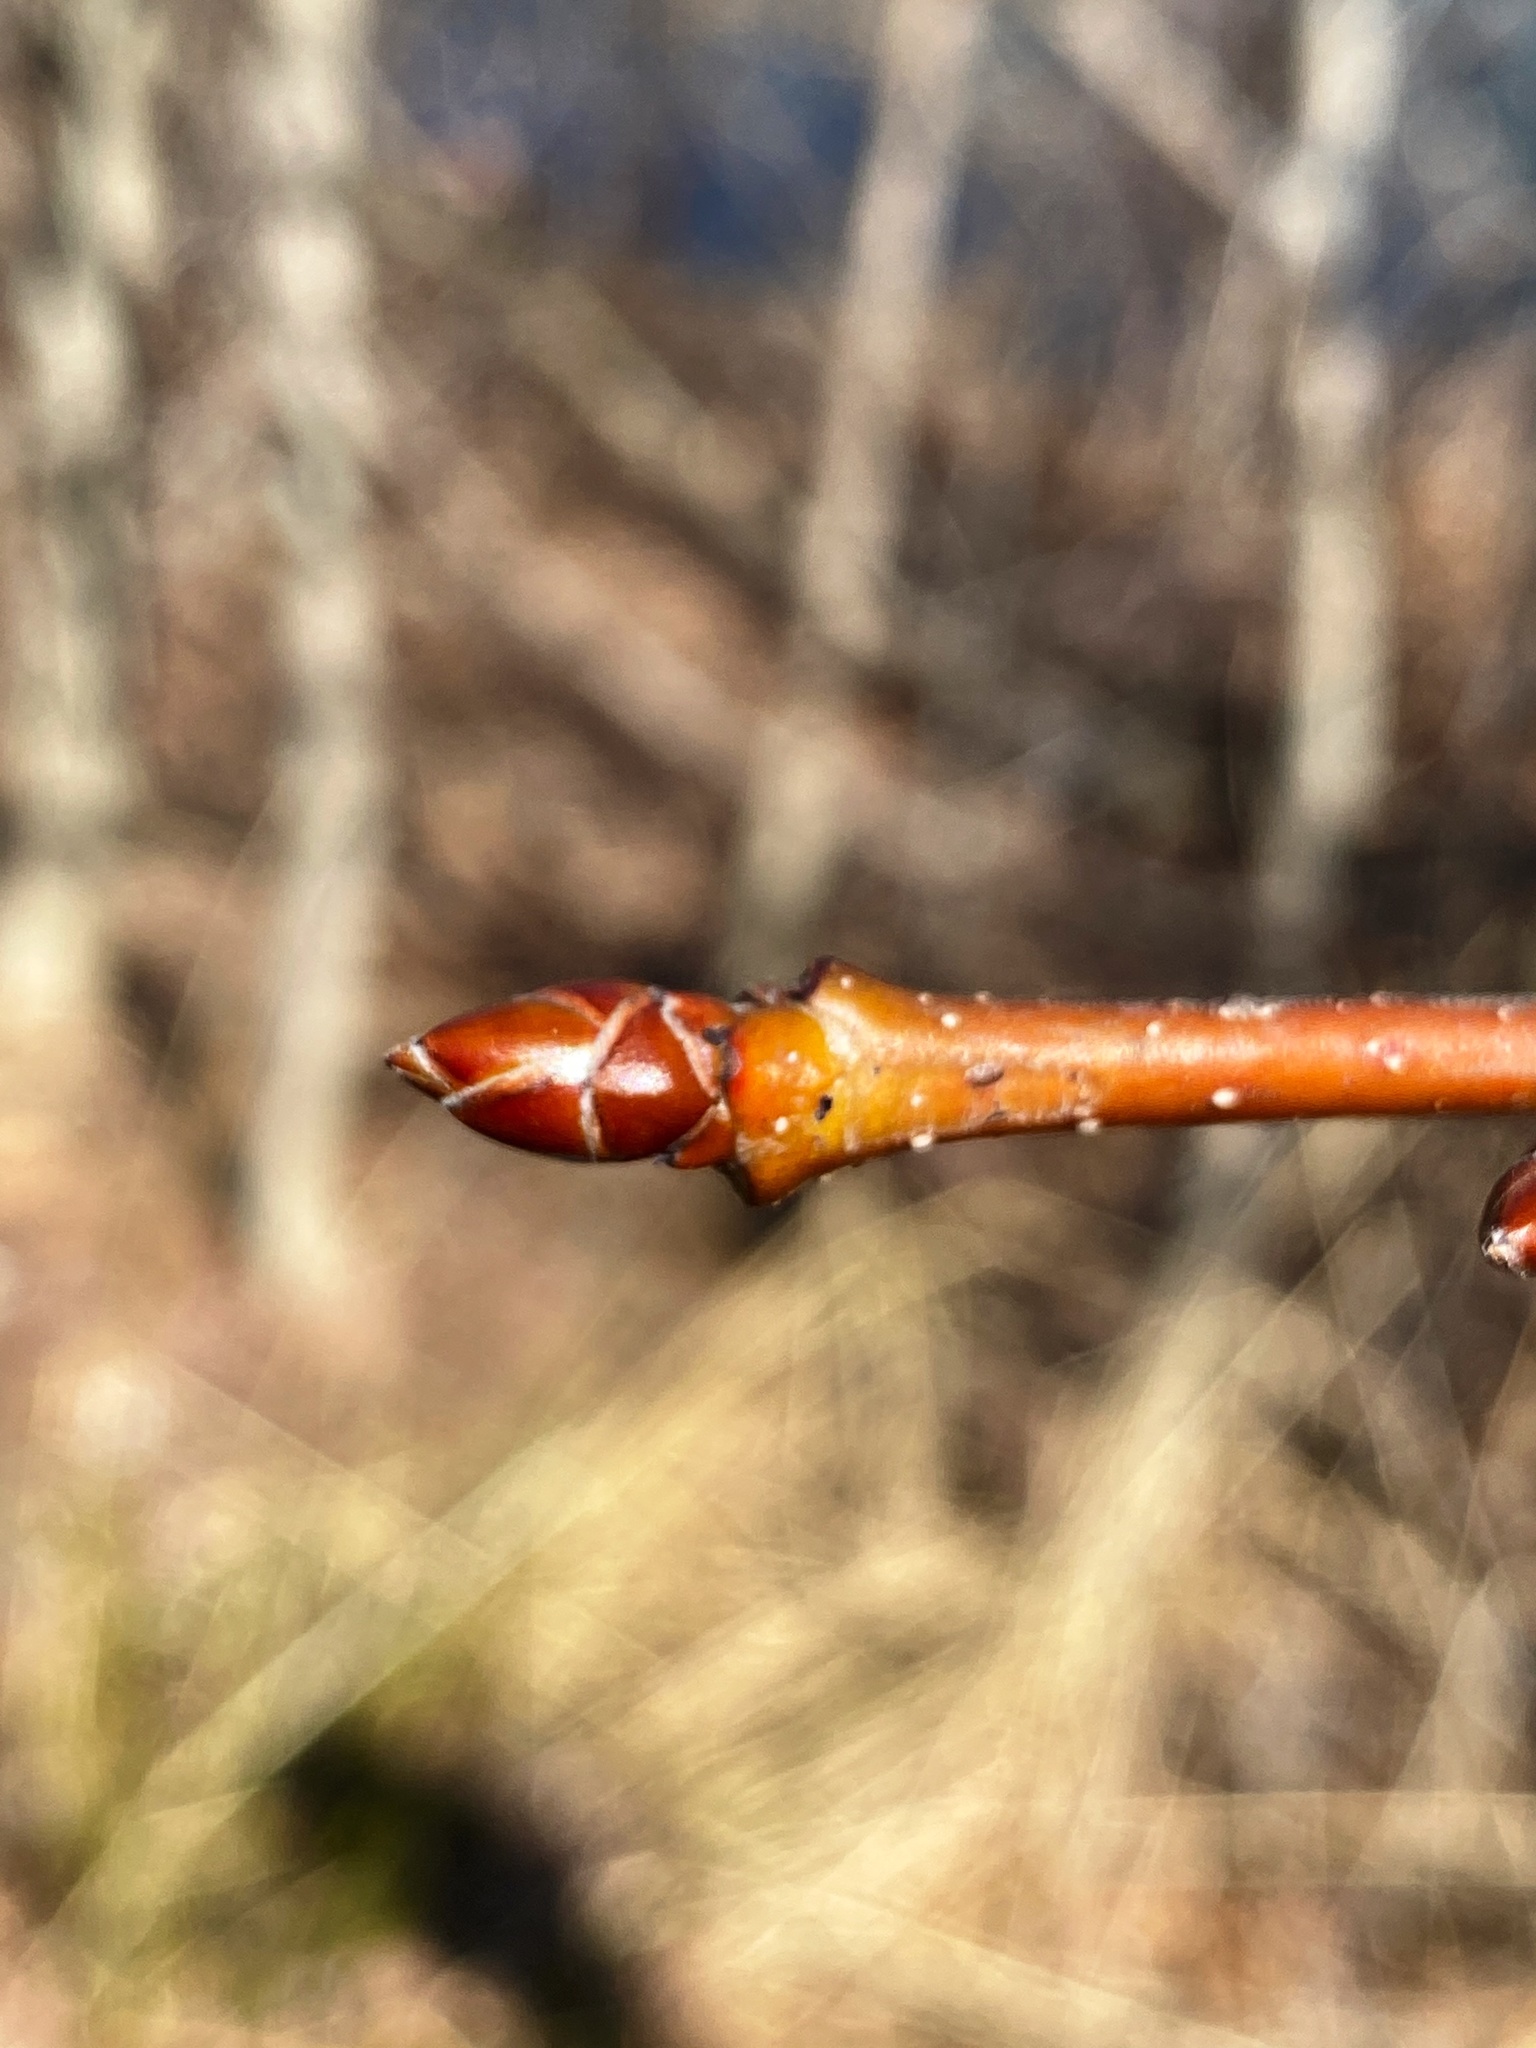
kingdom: Plantae
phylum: Tracheophyta
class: Magnoliopsida
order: Saxifragales
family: Altingiaceae
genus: Liquidambar
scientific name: Liquidambar styraciflua
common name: Sweet gum
